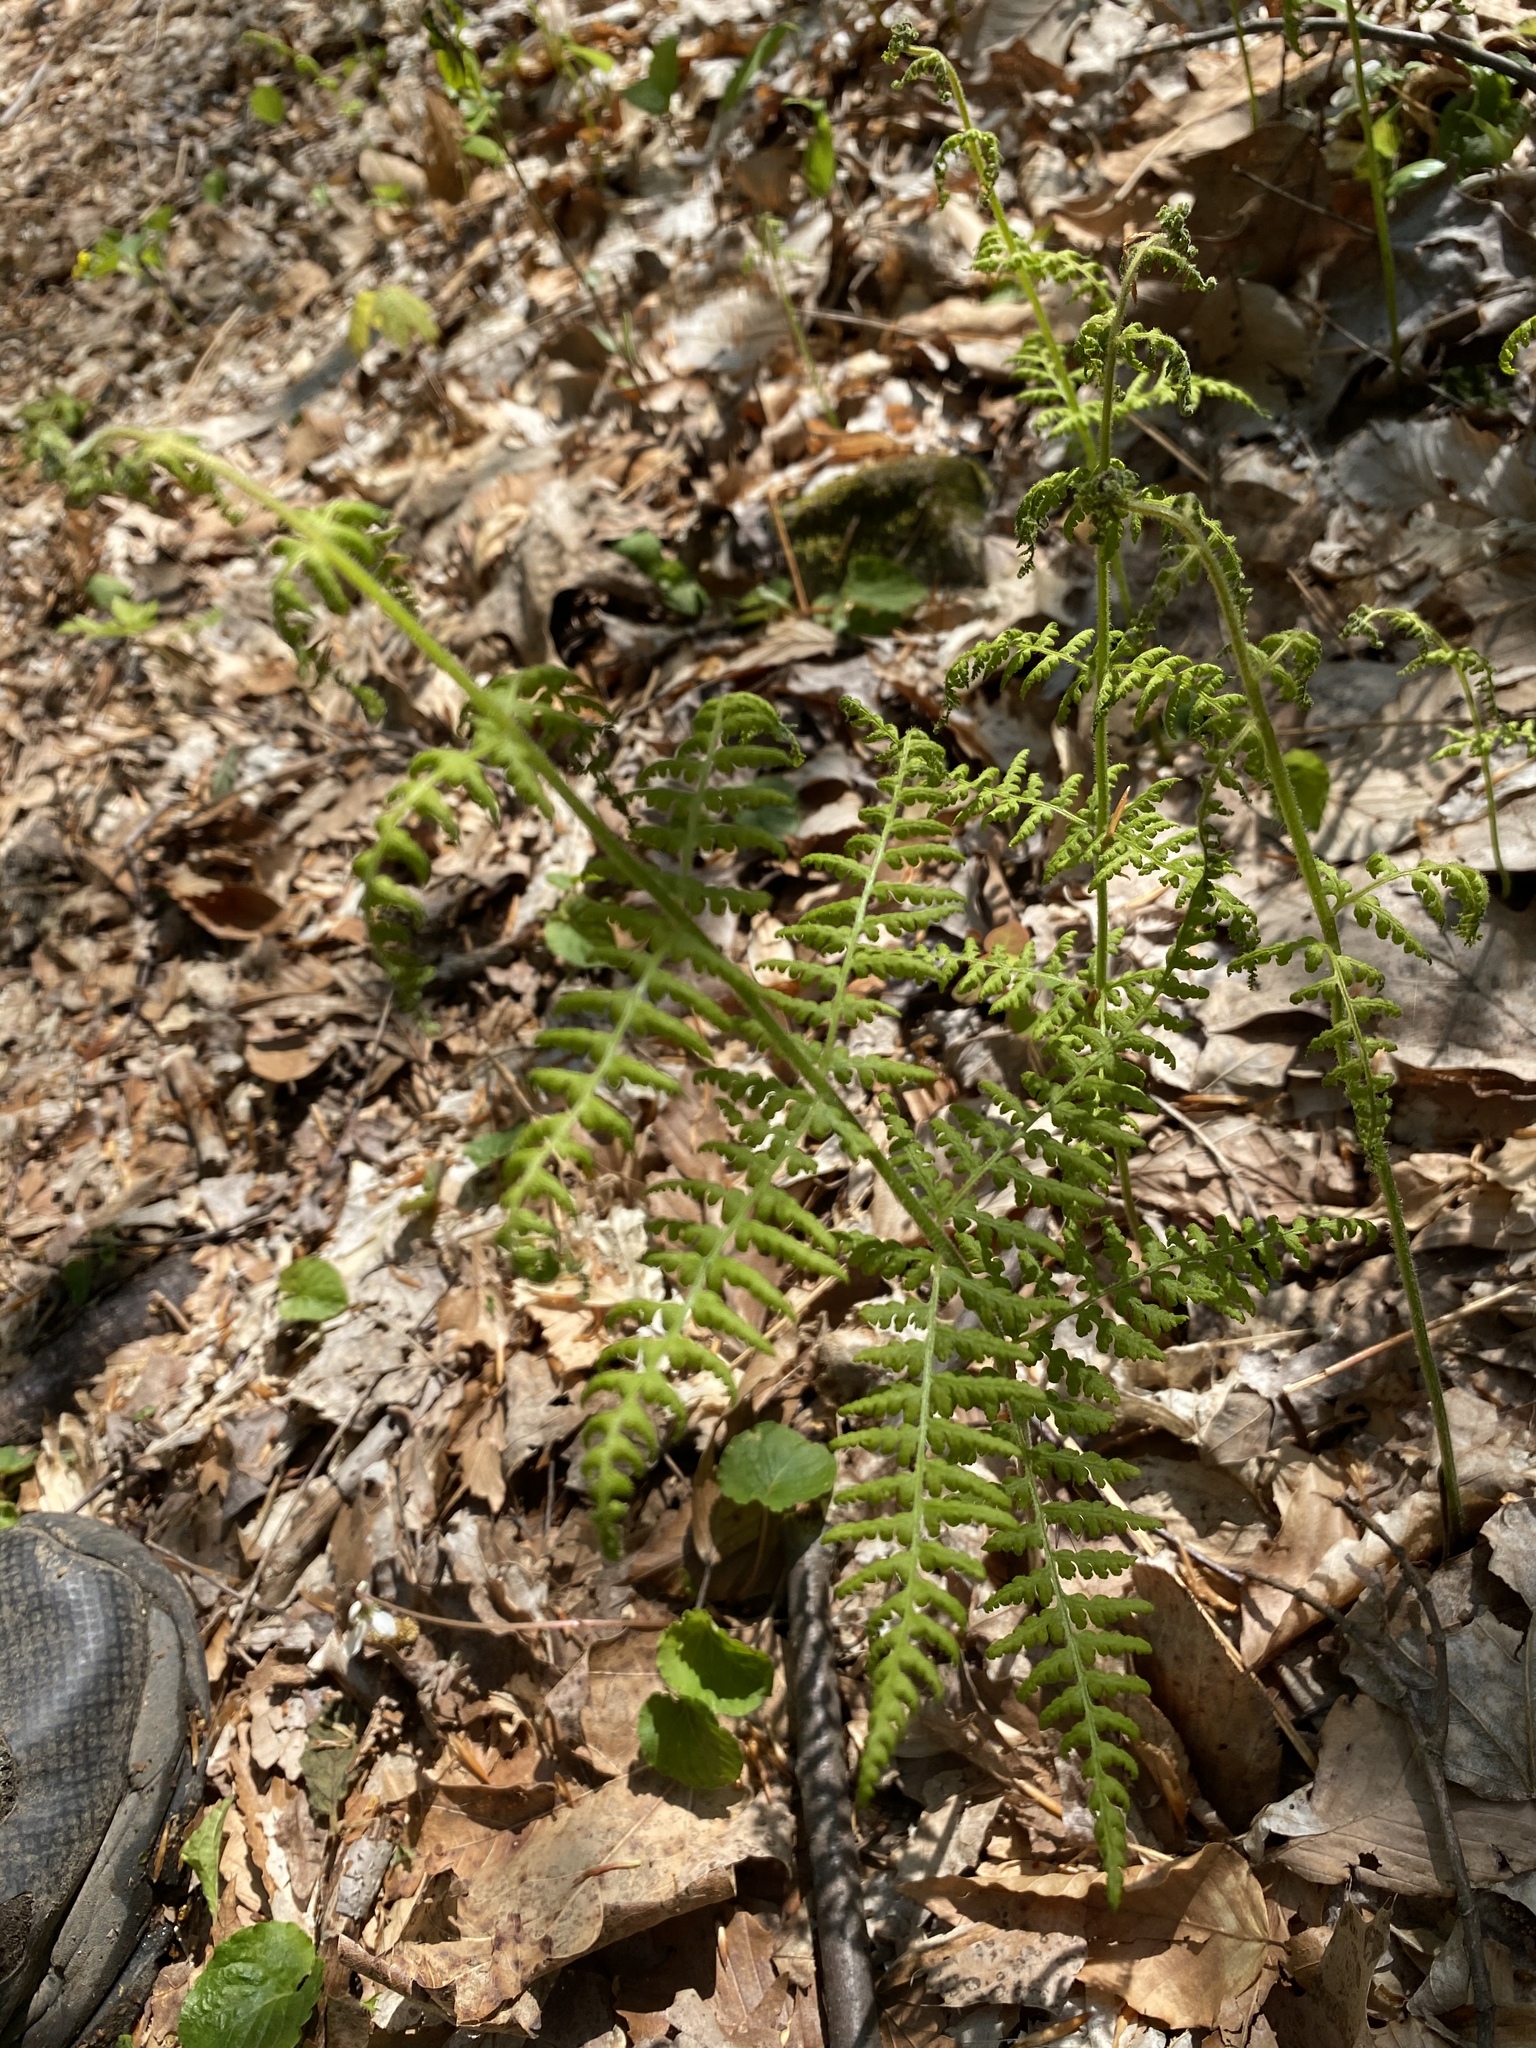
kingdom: Plantae
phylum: Tracheophyta
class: Polypodiopsida
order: Polypodiales
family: Dennstaedtiaceae
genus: Sitobolium
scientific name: Sitobolium punctilobum
